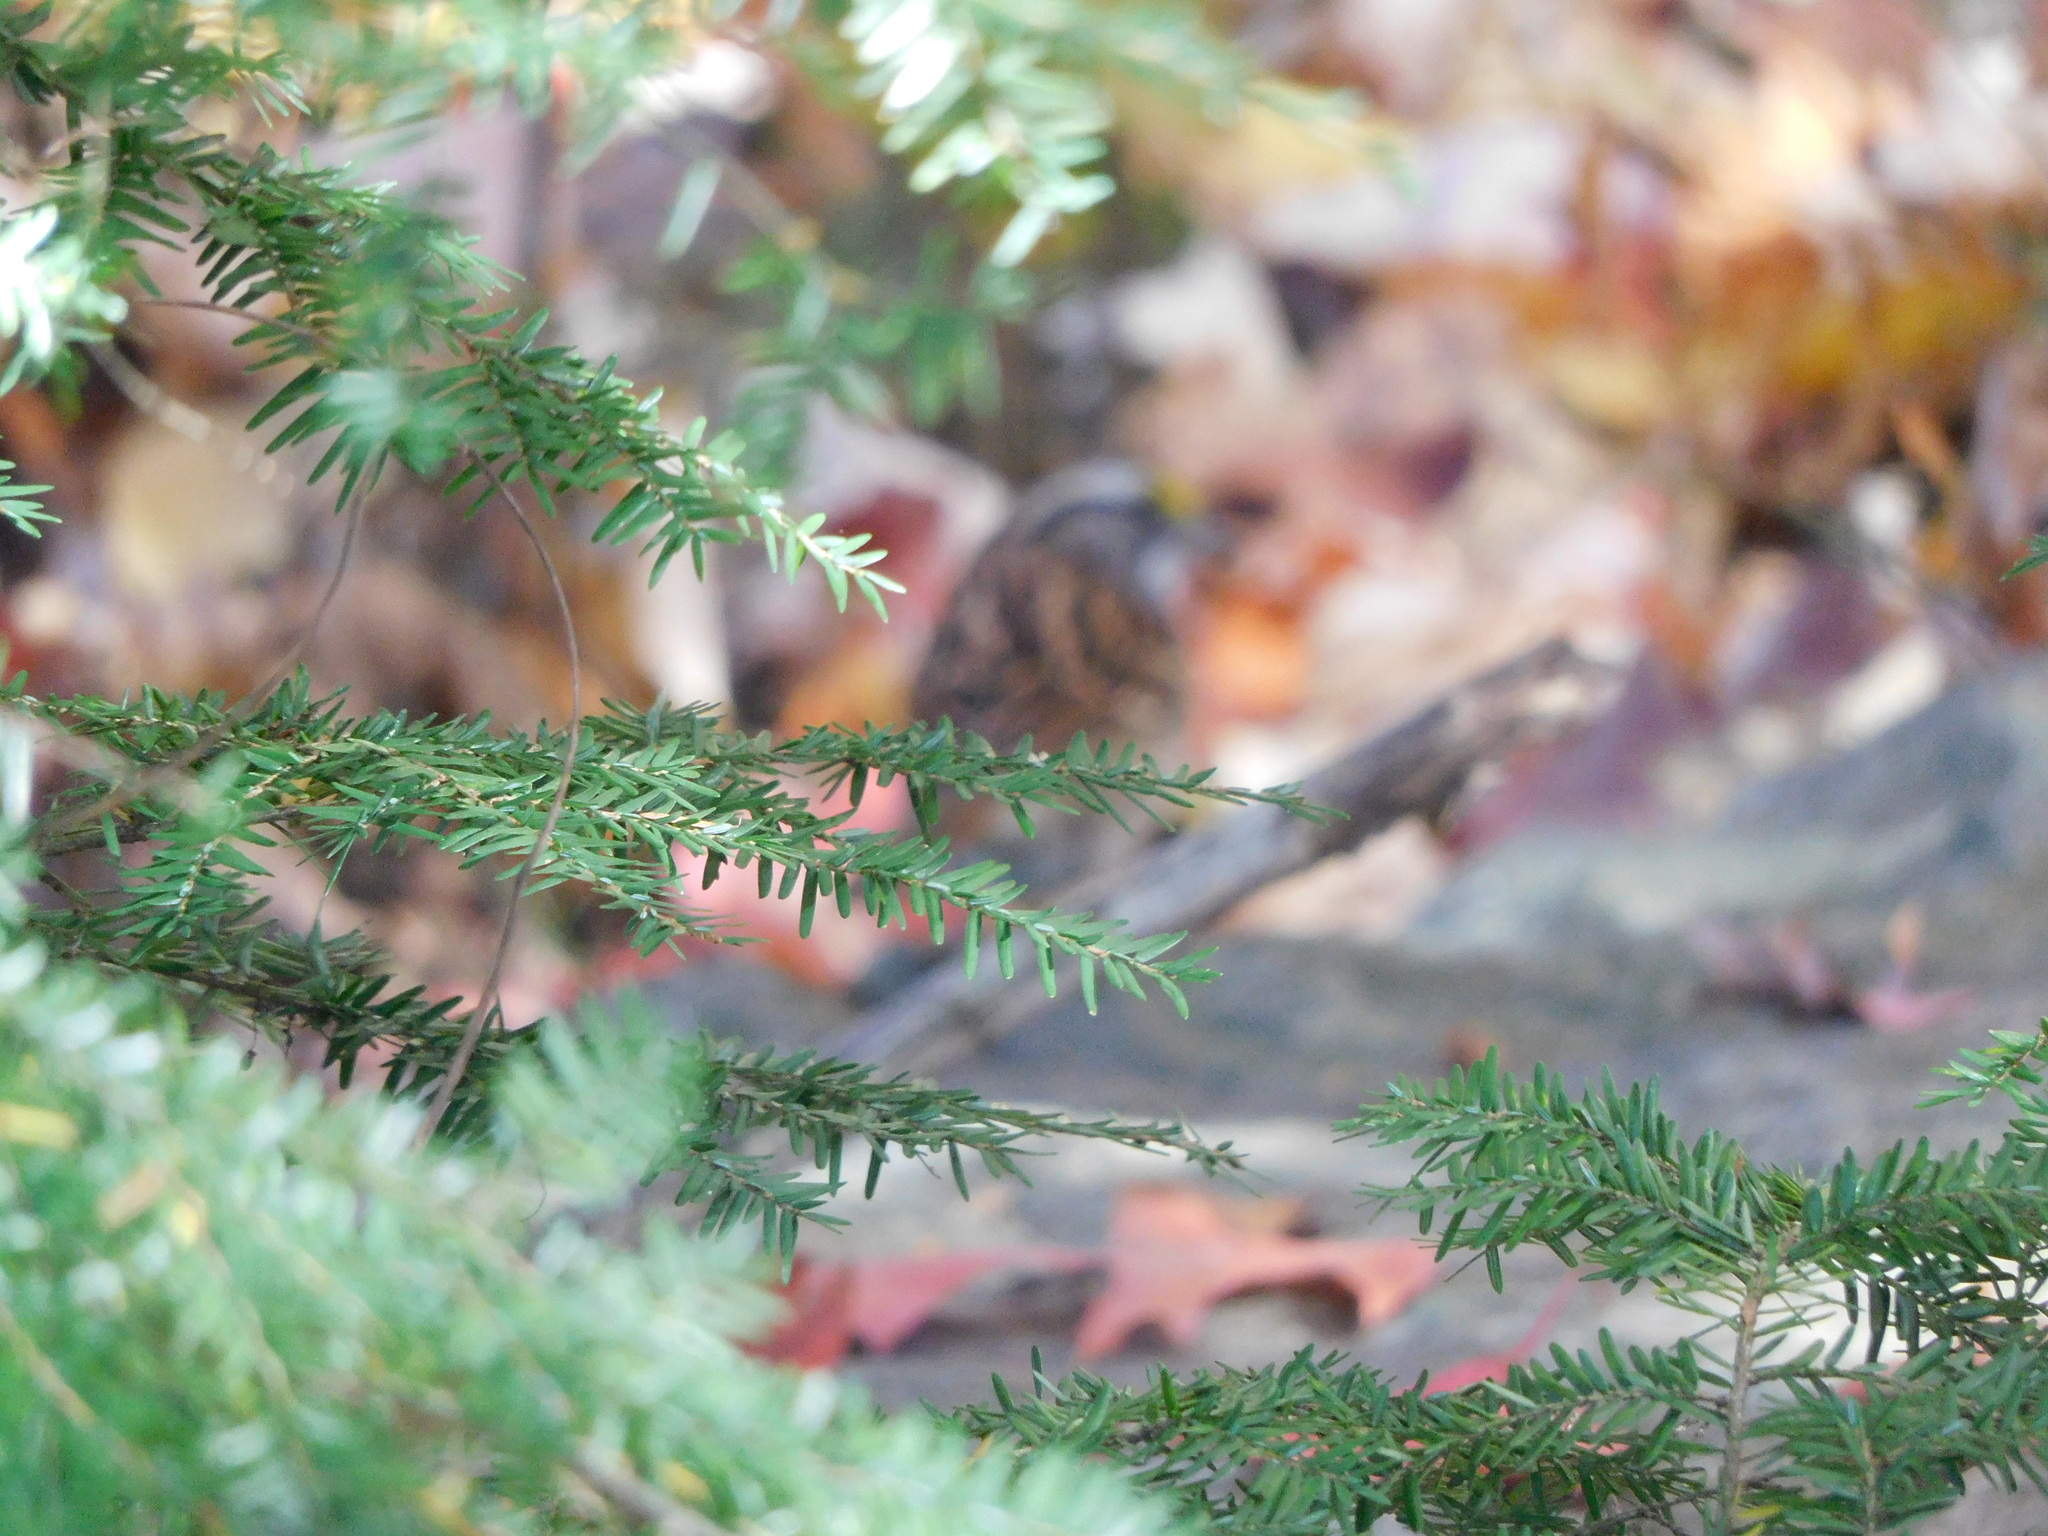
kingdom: Plantae
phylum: Tracheophyta
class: Pinopsida
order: Pinales
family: Pinaceae
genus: Tsuga
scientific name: Tsuga canadensis
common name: Eastern hemlock
